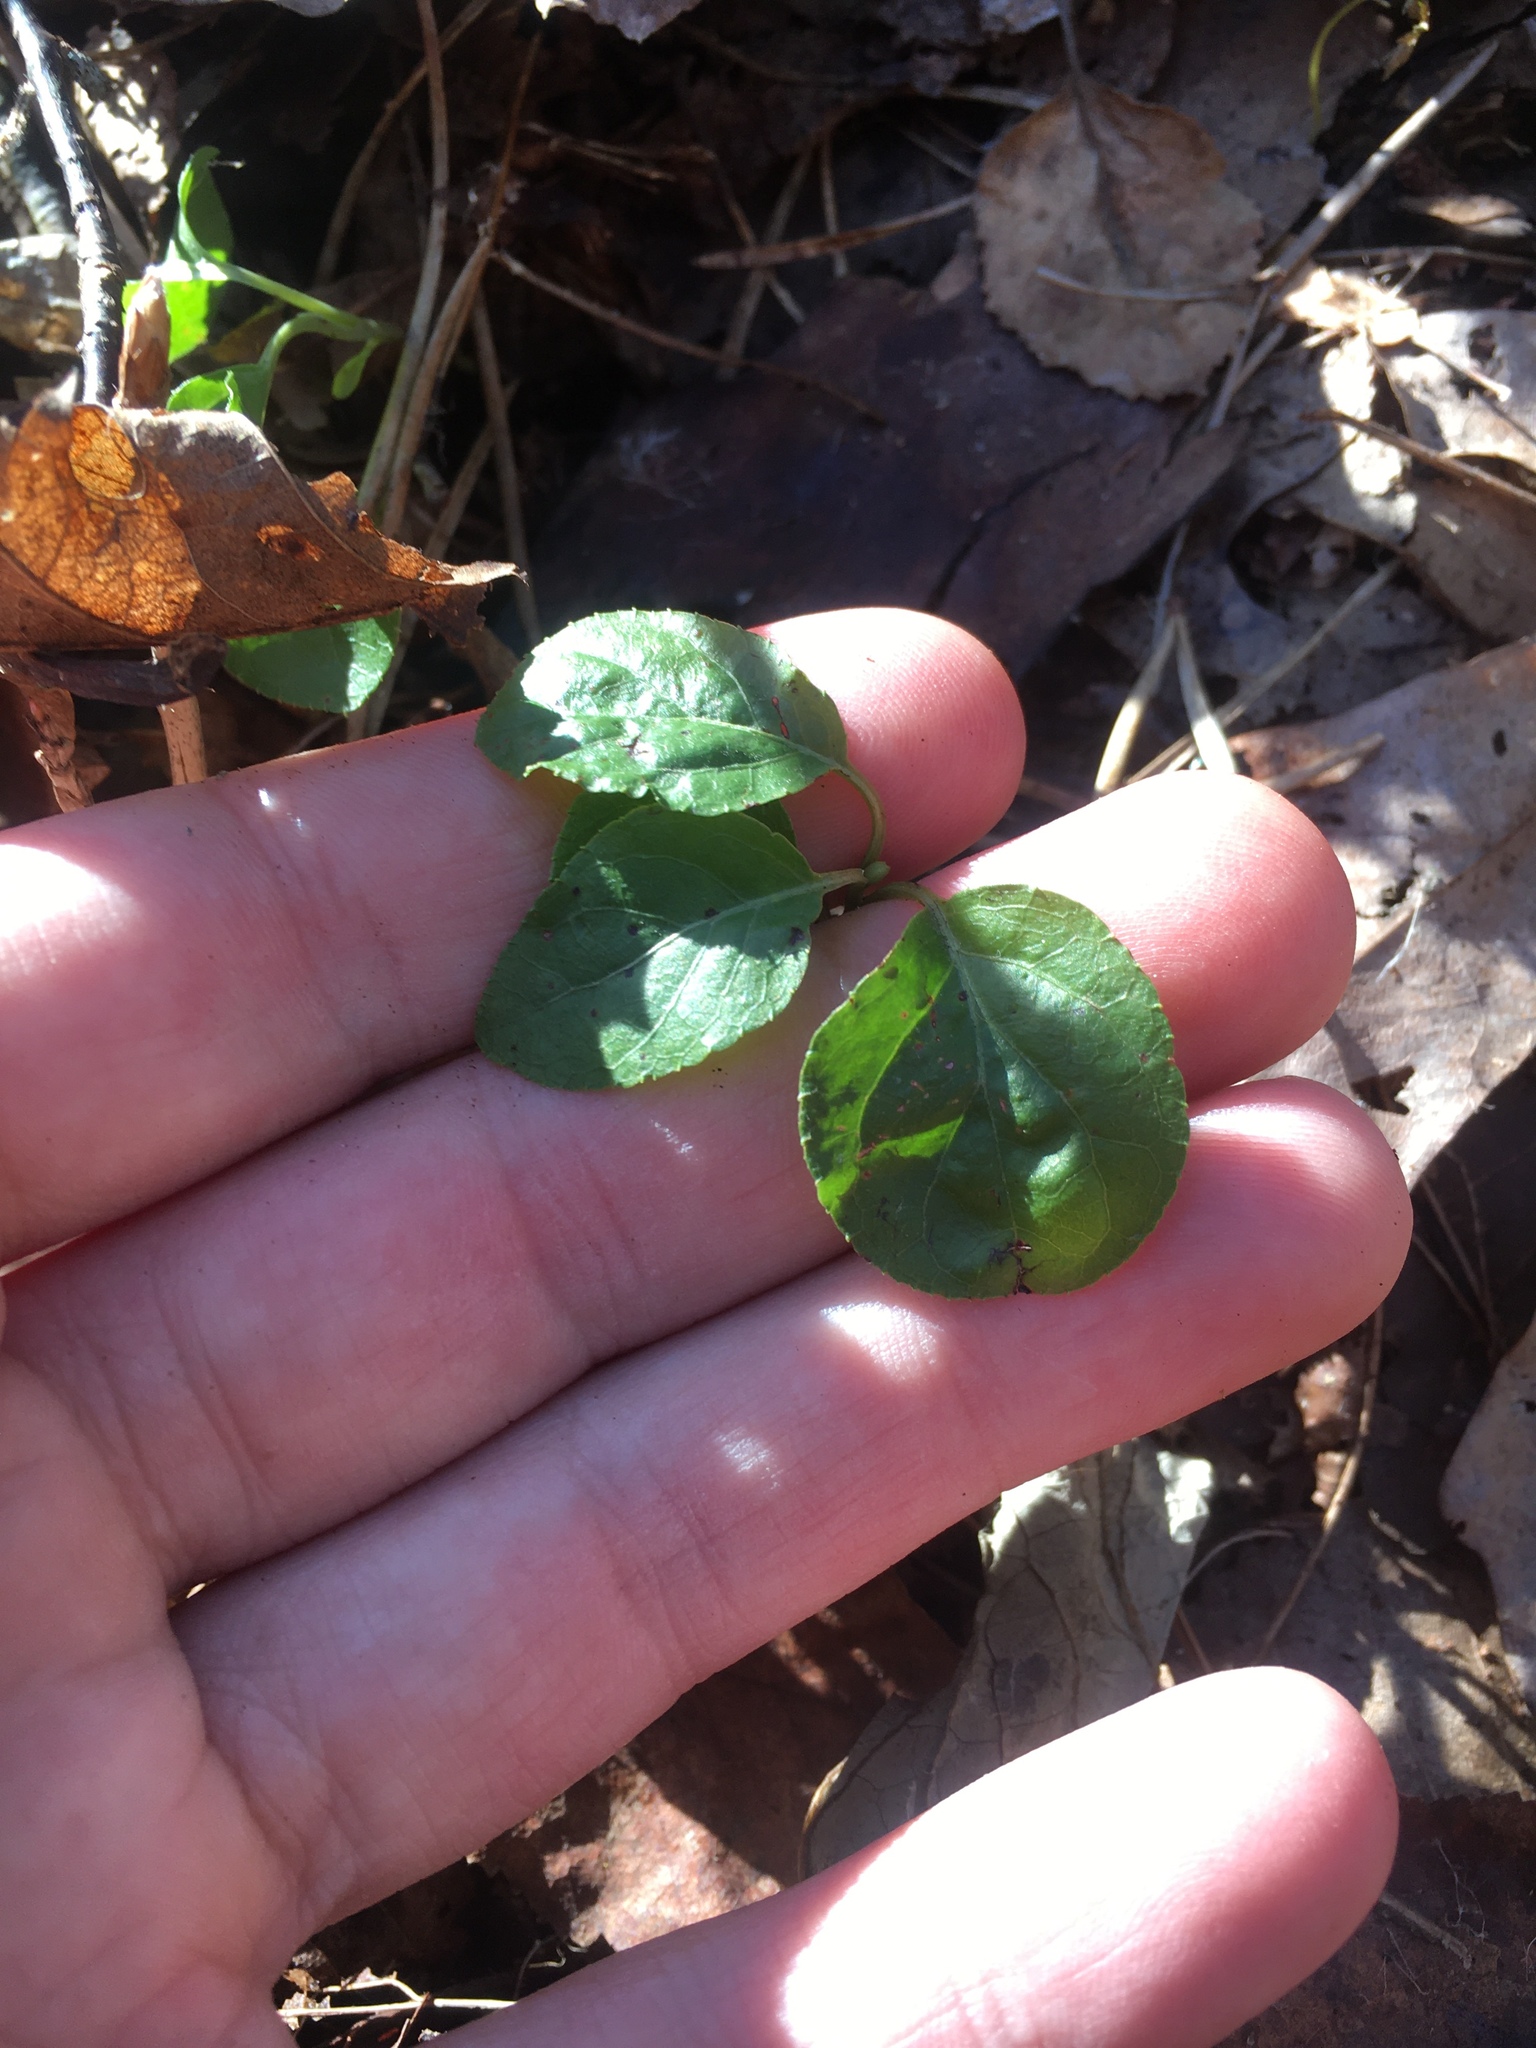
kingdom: Plantae
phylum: Tracheophyta
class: Magnoliopsida
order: Ericales
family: Ericaceae
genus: Orthilia
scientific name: Orthilia secunda
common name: One-sided orthilia
